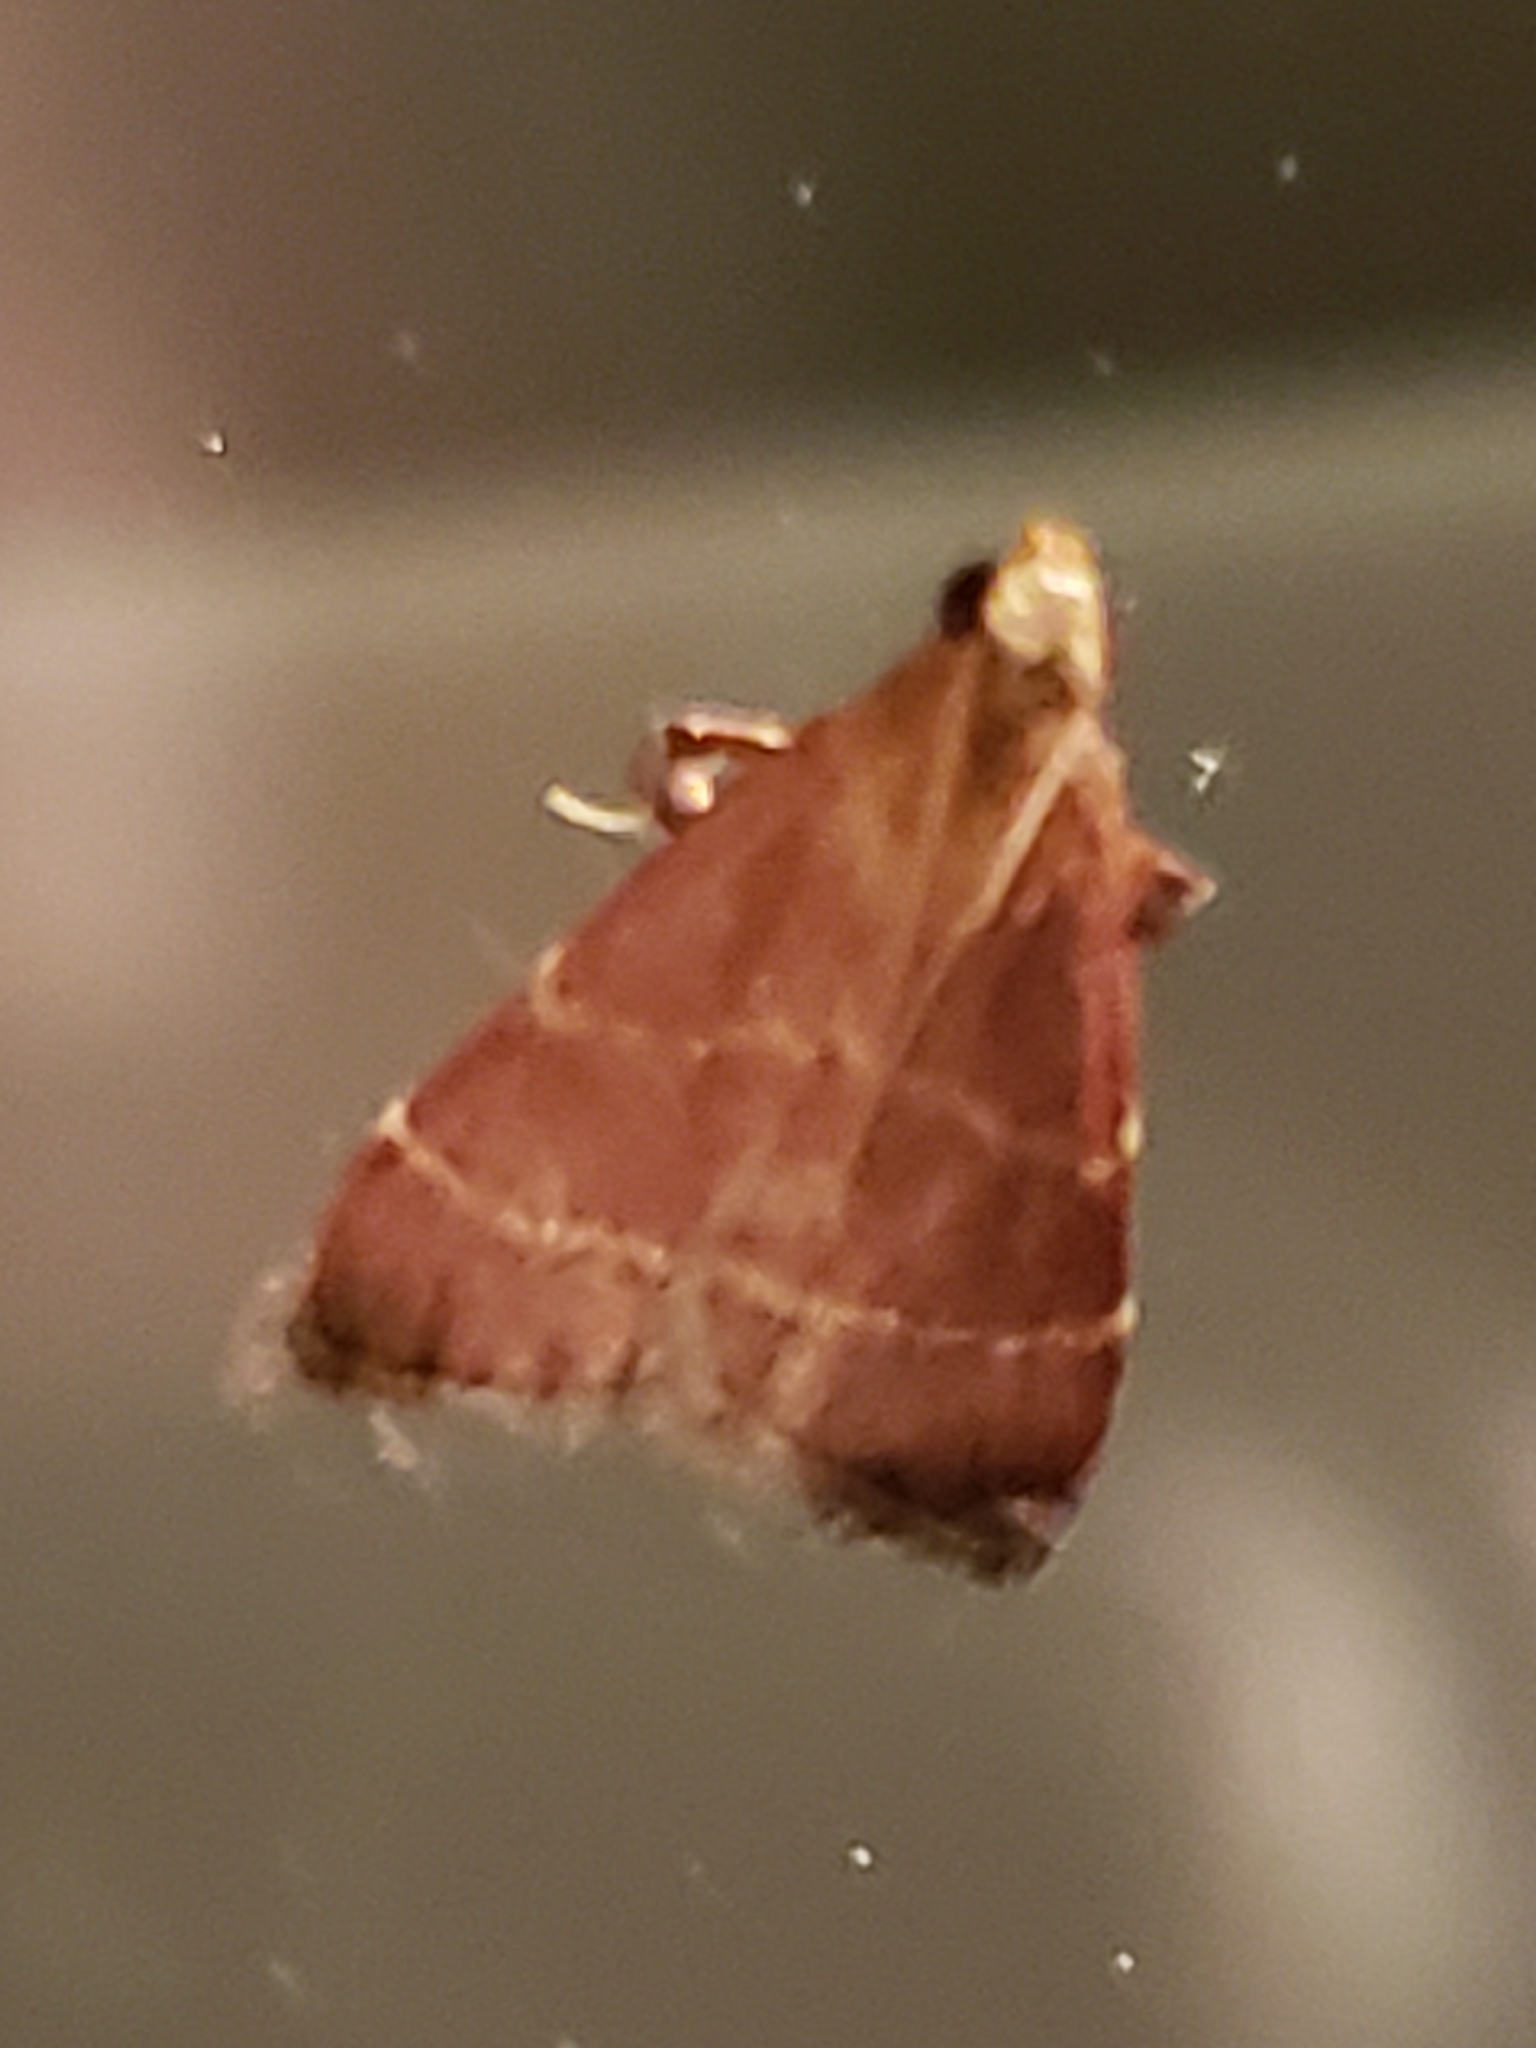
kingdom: Animalia
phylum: Arthropoda
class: Insecta
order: Lepidoptera
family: Pyralidae
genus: Arta
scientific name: Arta statalis
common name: Posturing arta moth
